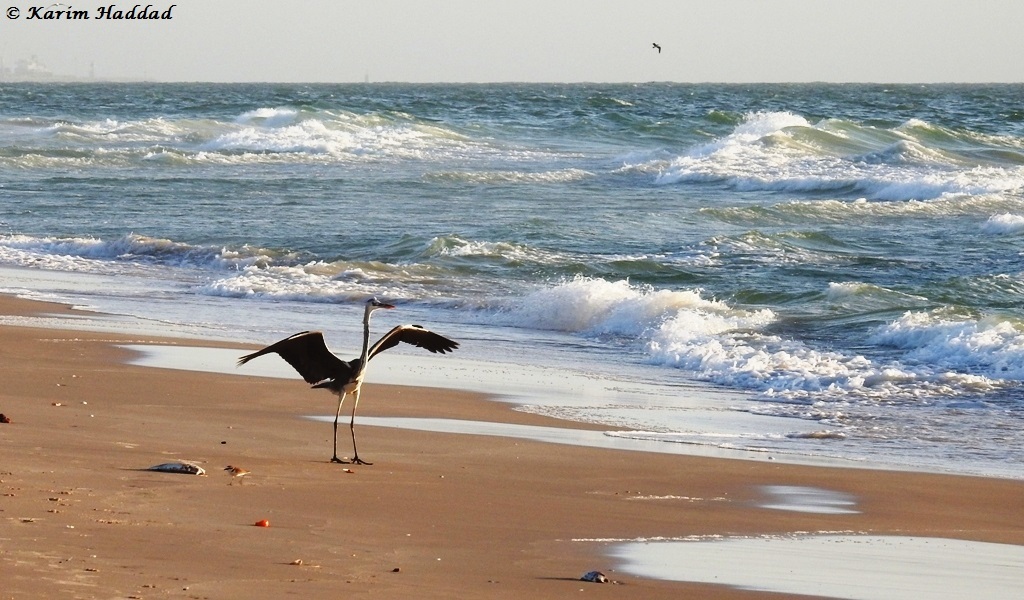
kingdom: Animalia
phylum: Chordata
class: Aves
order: Pelecaniformes
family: Ardeidae
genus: Ardea
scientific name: Ardea cinerea
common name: Grey heron
